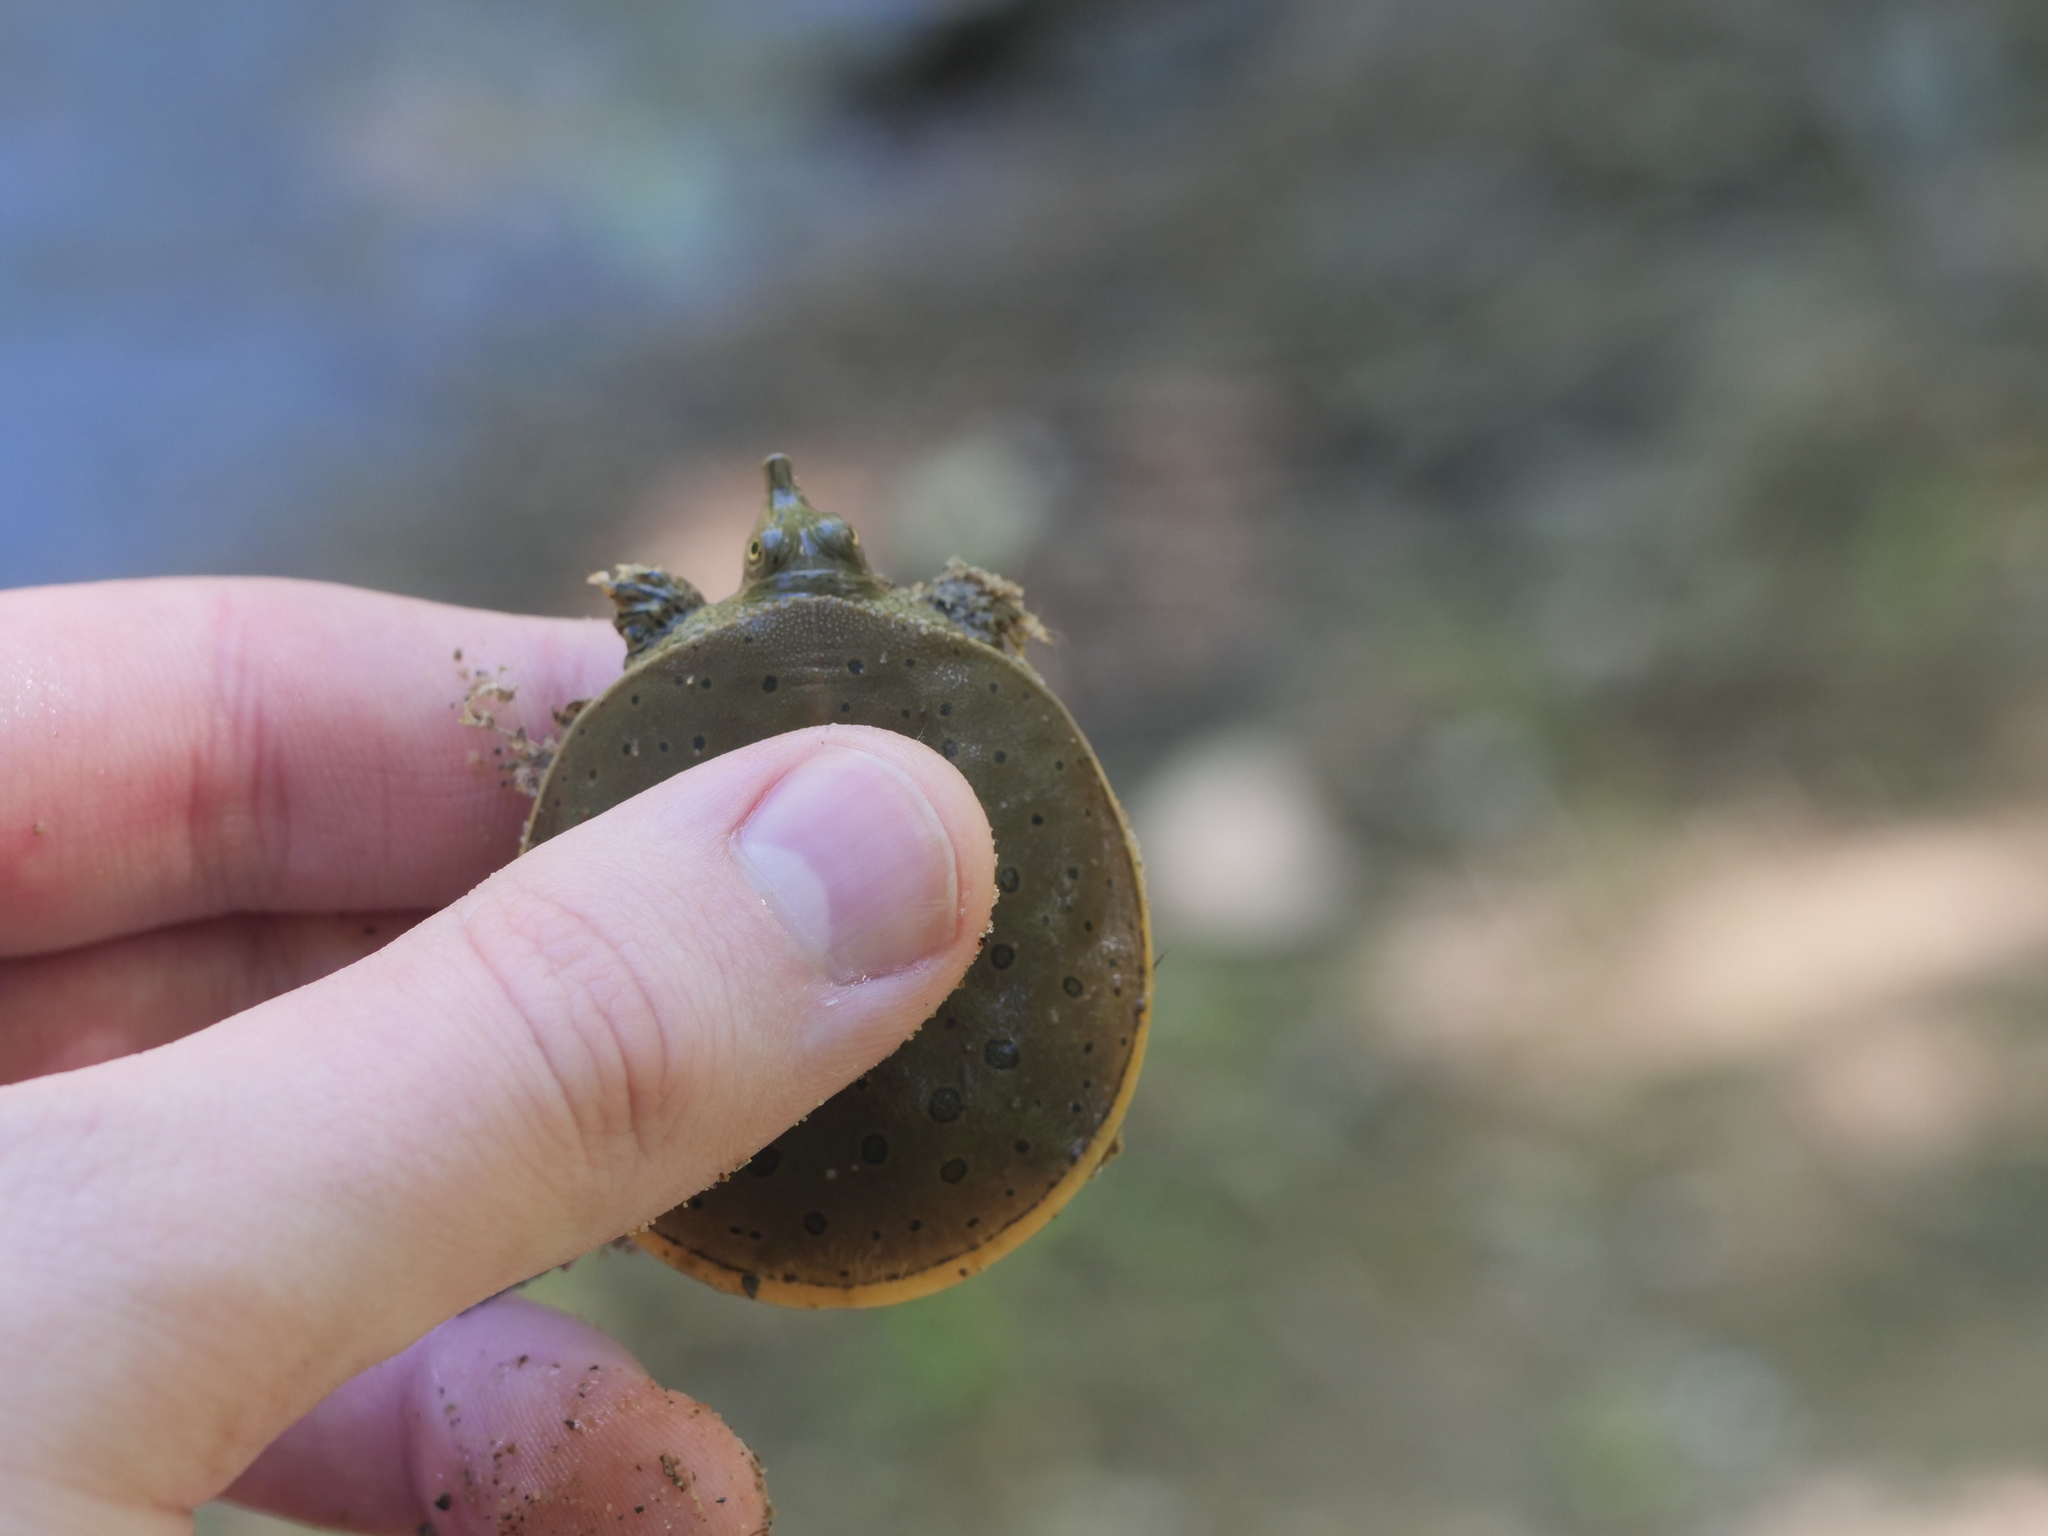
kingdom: Animalia
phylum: Chordata
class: Testudines
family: Trionychidae
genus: Apalone
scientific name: Apalone spinifera
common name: Spiny softshell turtle
